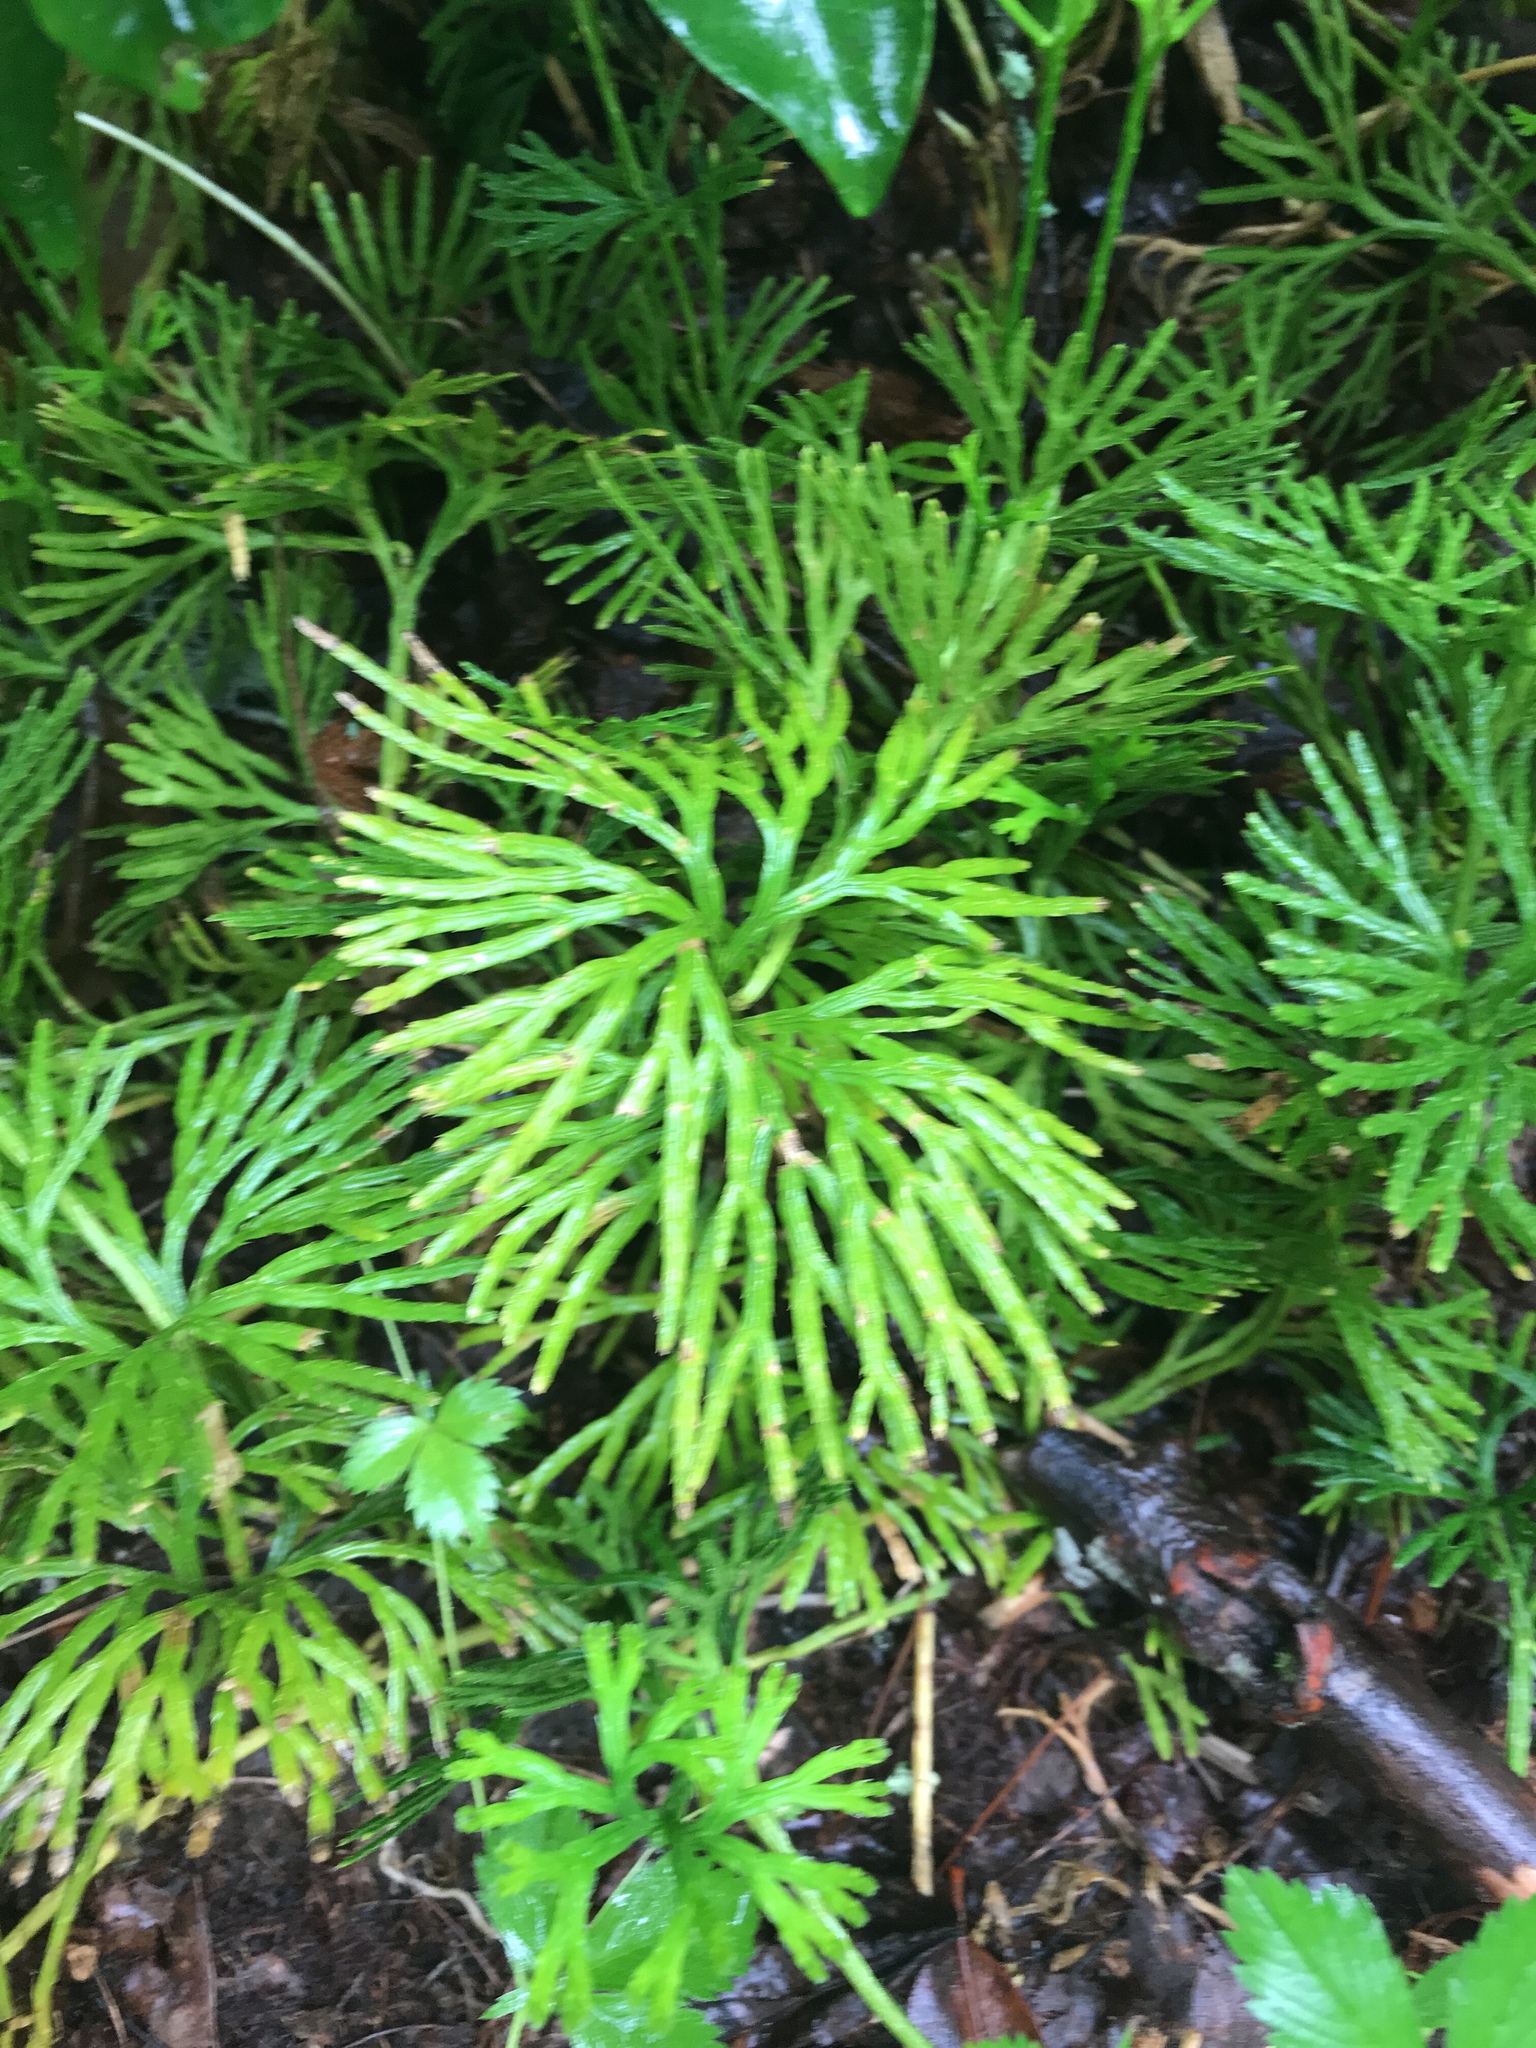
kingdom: Plantae
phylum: Tracheophyta
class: Lycopodiopsida
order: Lycopodiales
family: Lycopodiaceae
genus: Diphasiastrum
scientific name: Diphasiastrum digitatum
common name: Southern running-pine
